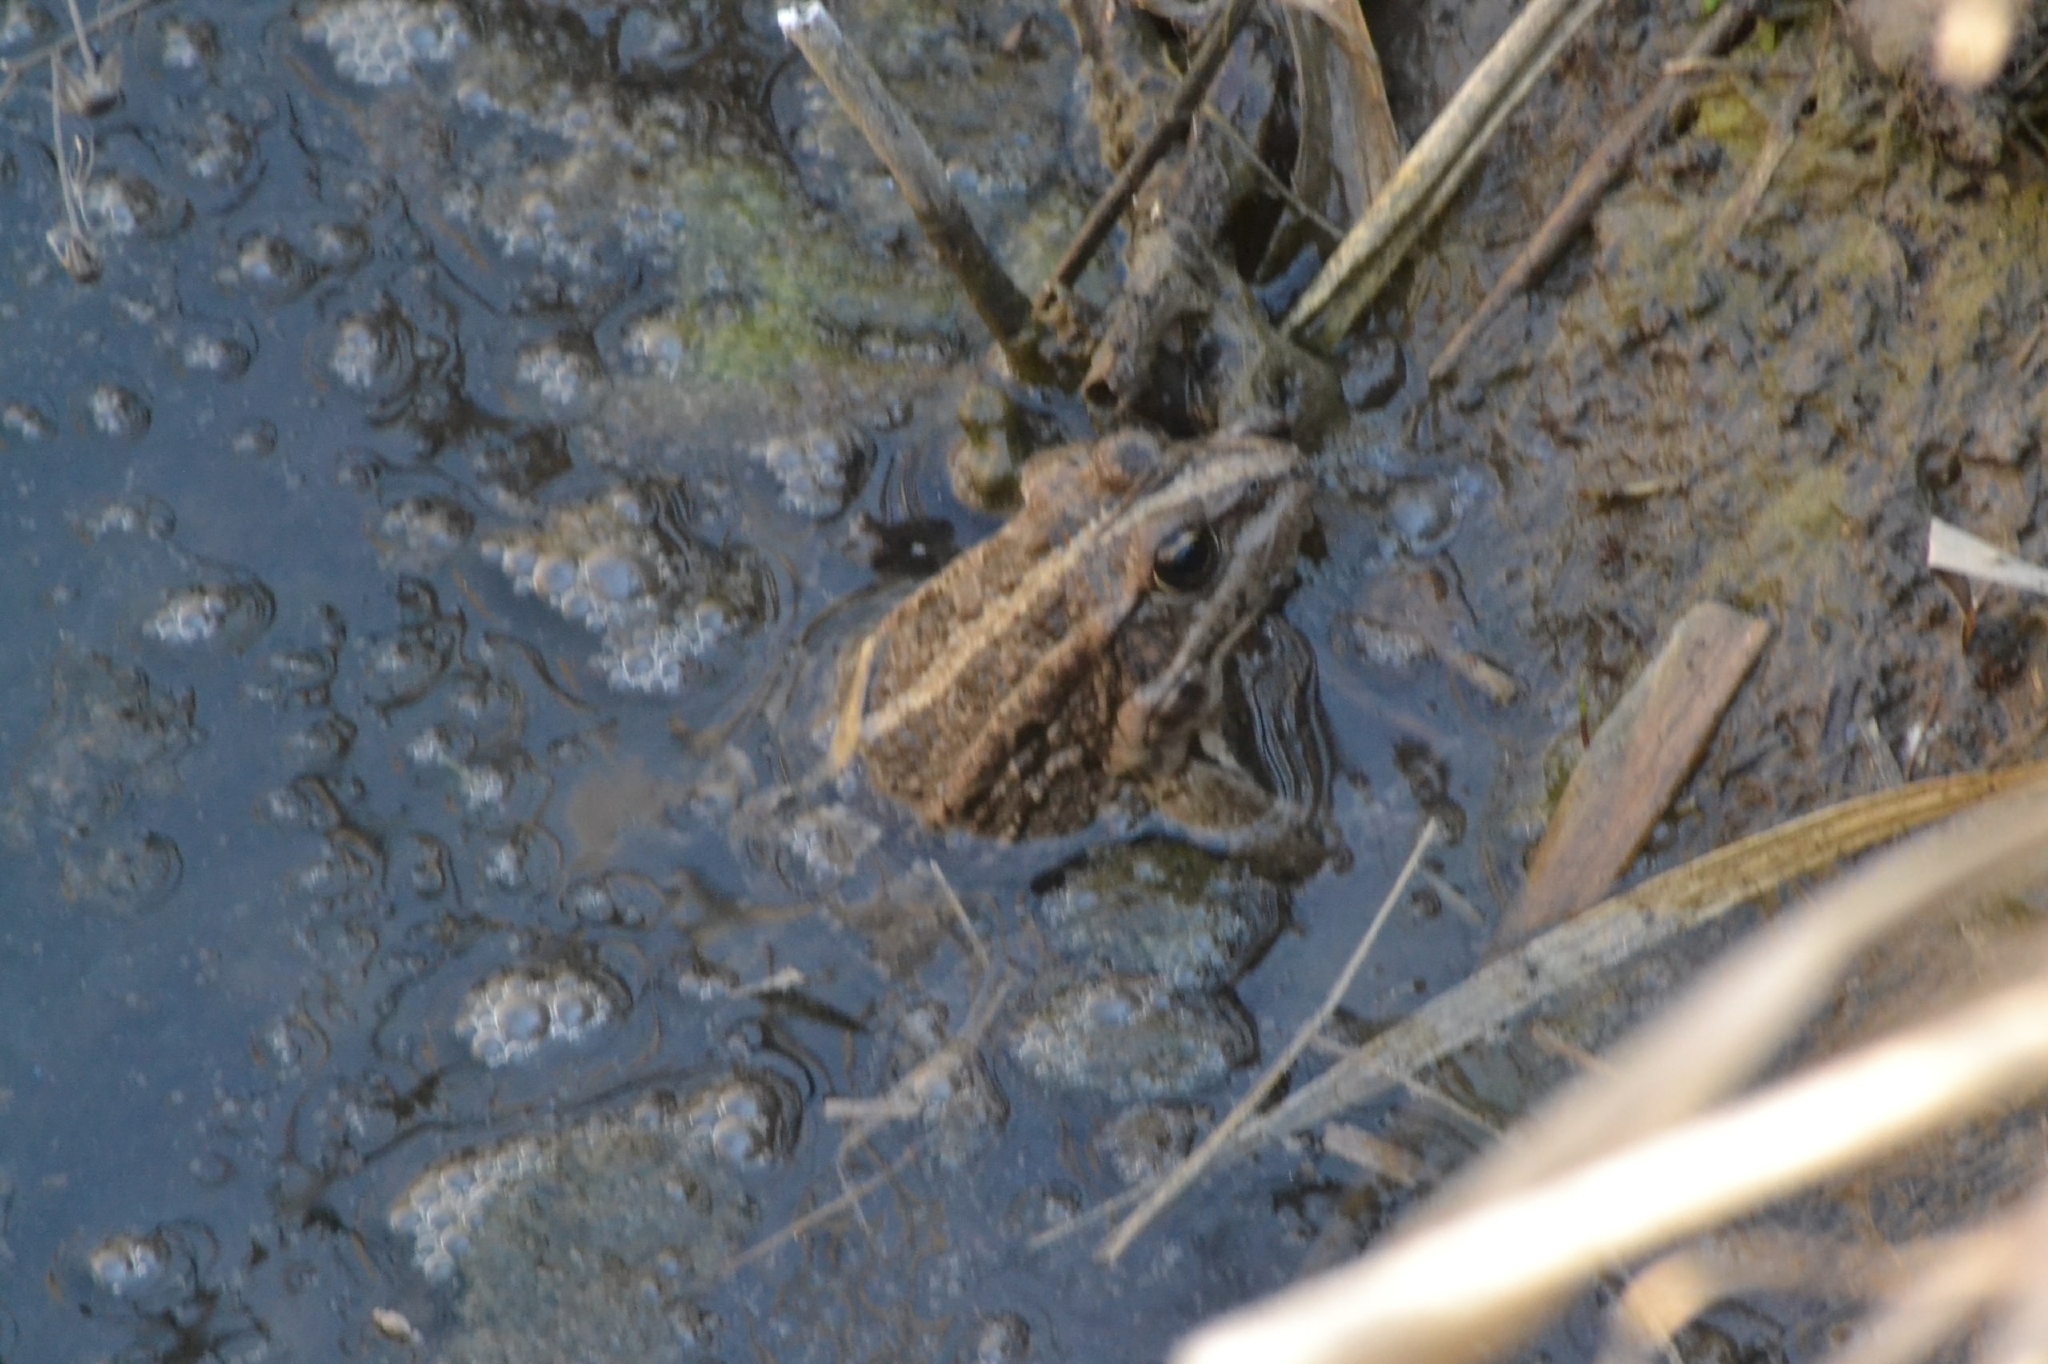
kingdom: Animalia
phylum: Chordata
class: Amphibia
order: Anura
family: Ranidae
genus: Pelophylax
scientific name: Pelophylax ridibundus
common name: Marsh frog
